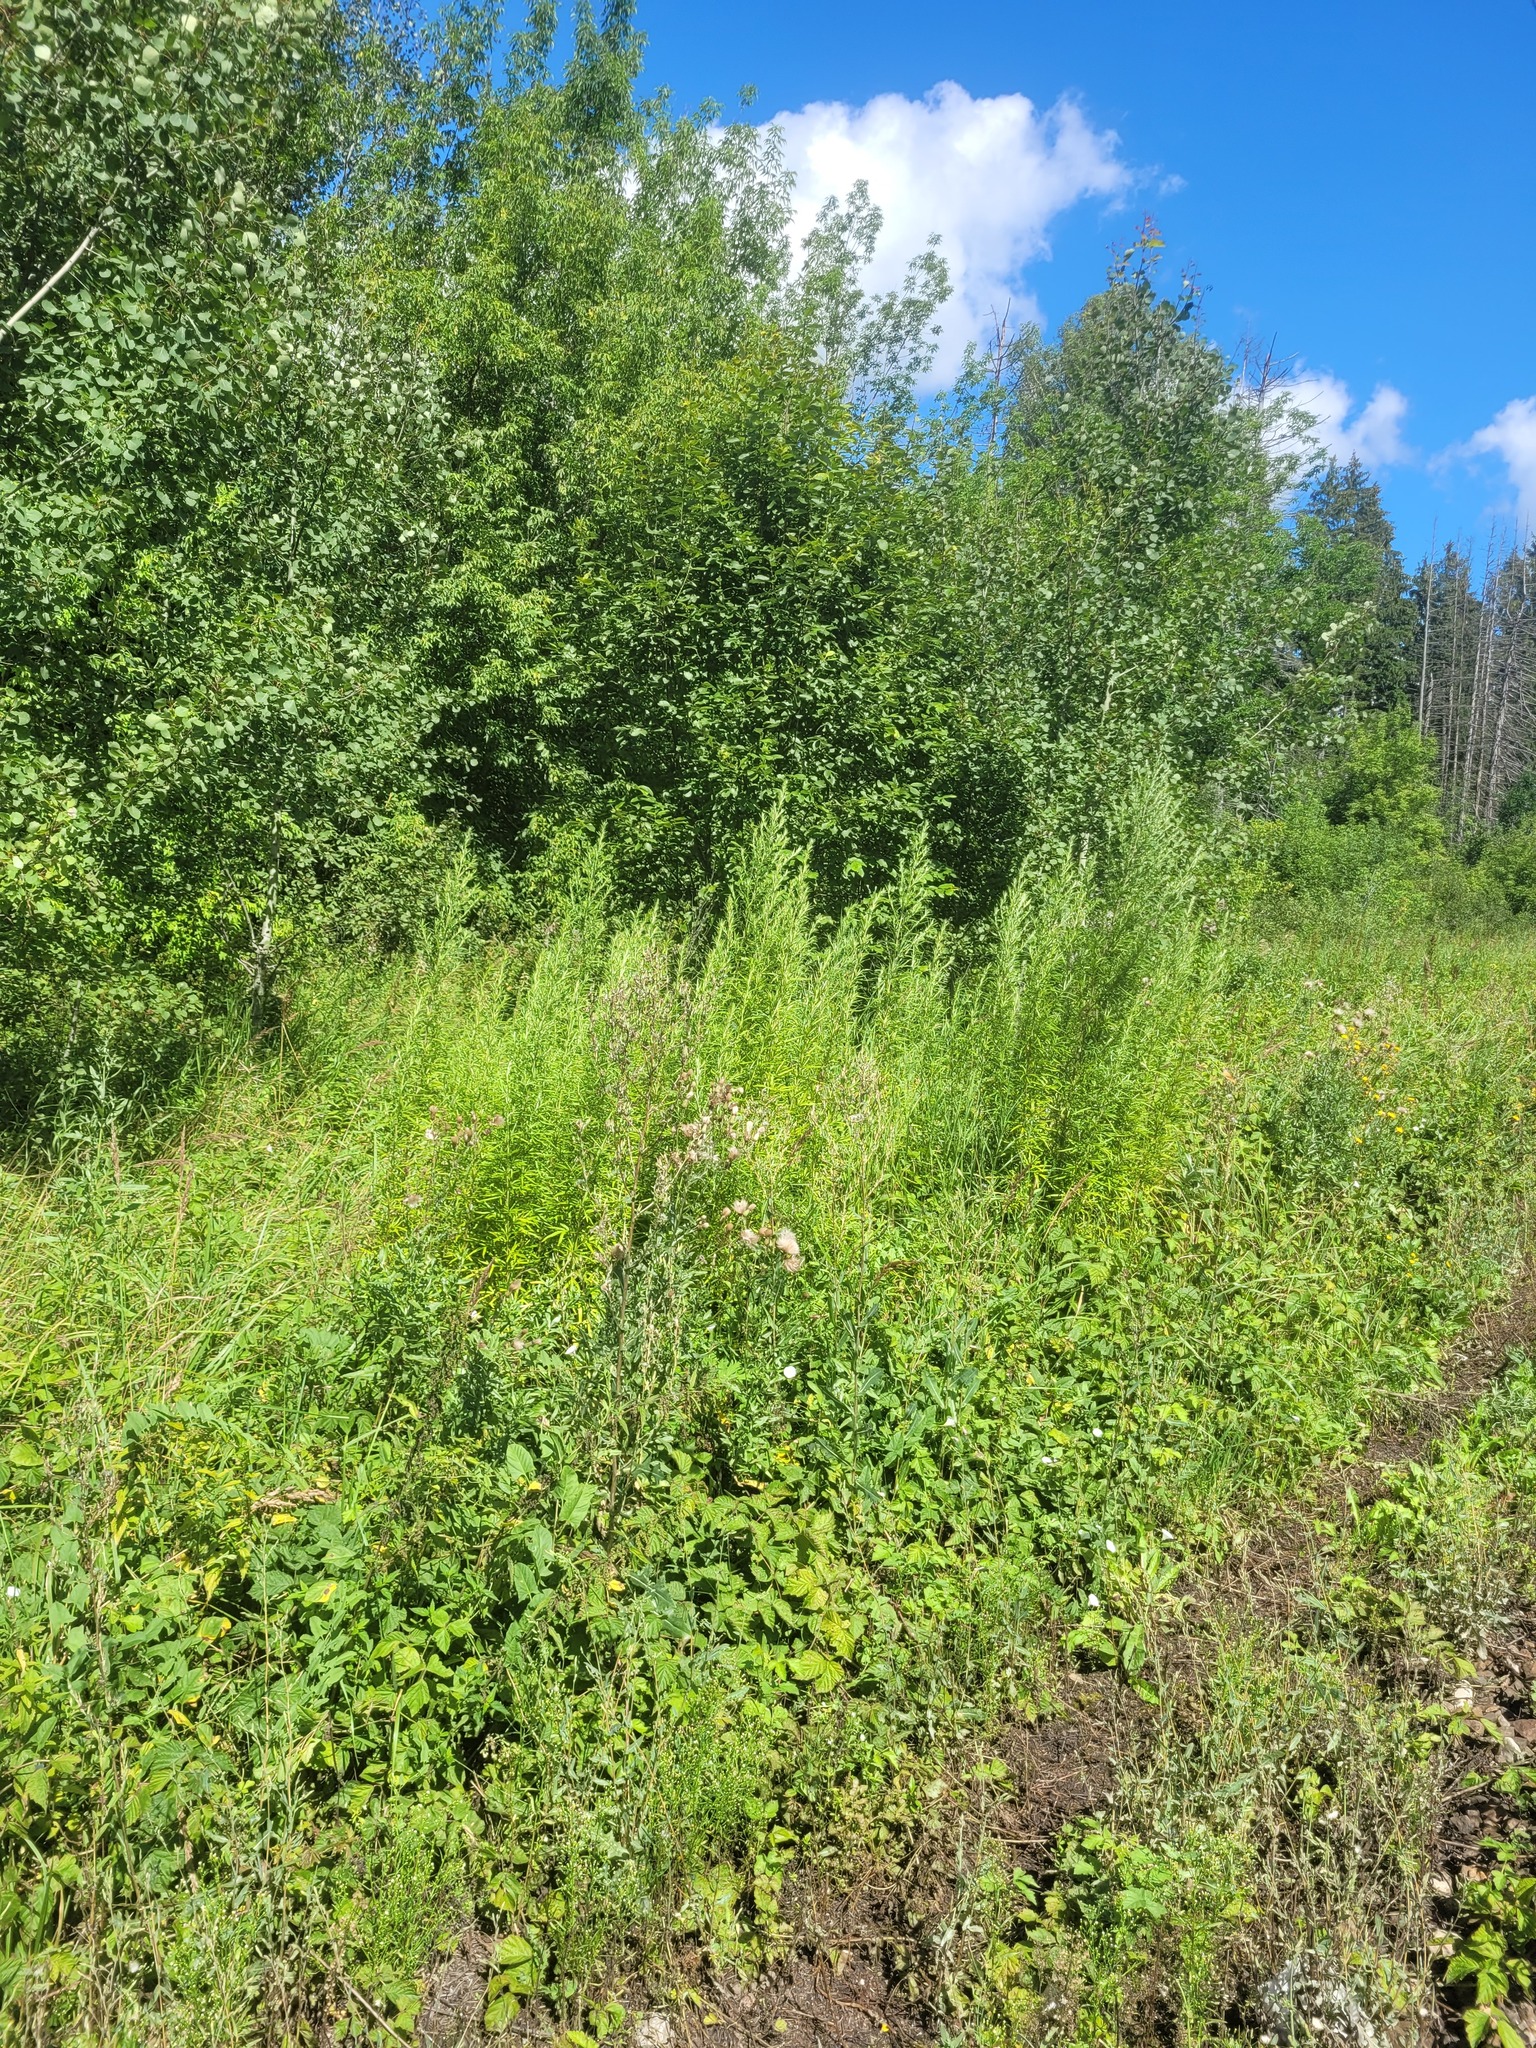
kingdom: Plantae
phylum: Tracheophyta
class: Magnoliopsida
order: Asterales
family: Asteraceae
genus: Artemisia
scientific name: Artemisia umbrosa
